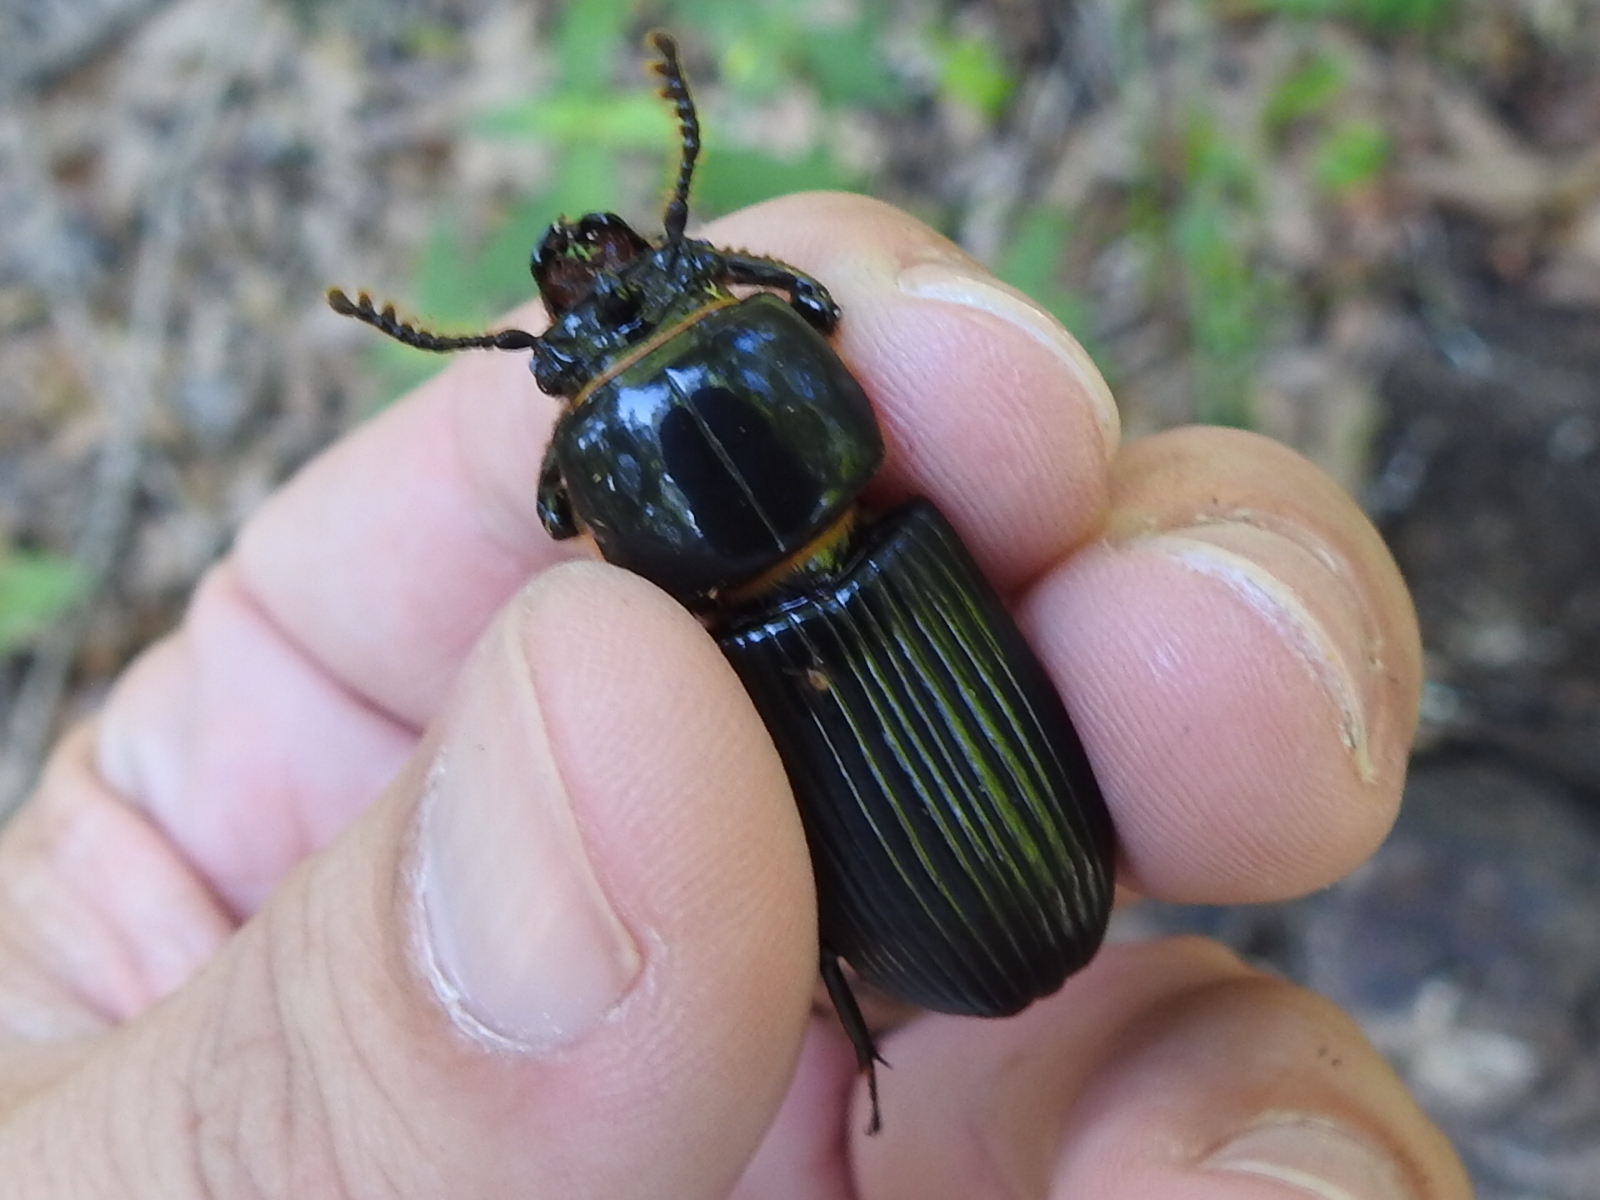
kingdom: Animalia
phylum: Arthropoda
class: Insecta
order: Coleoptera
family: Passalidae
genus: Odontotaenius
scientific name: Odontotaenius disjunctus
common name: Patent leather beetle
